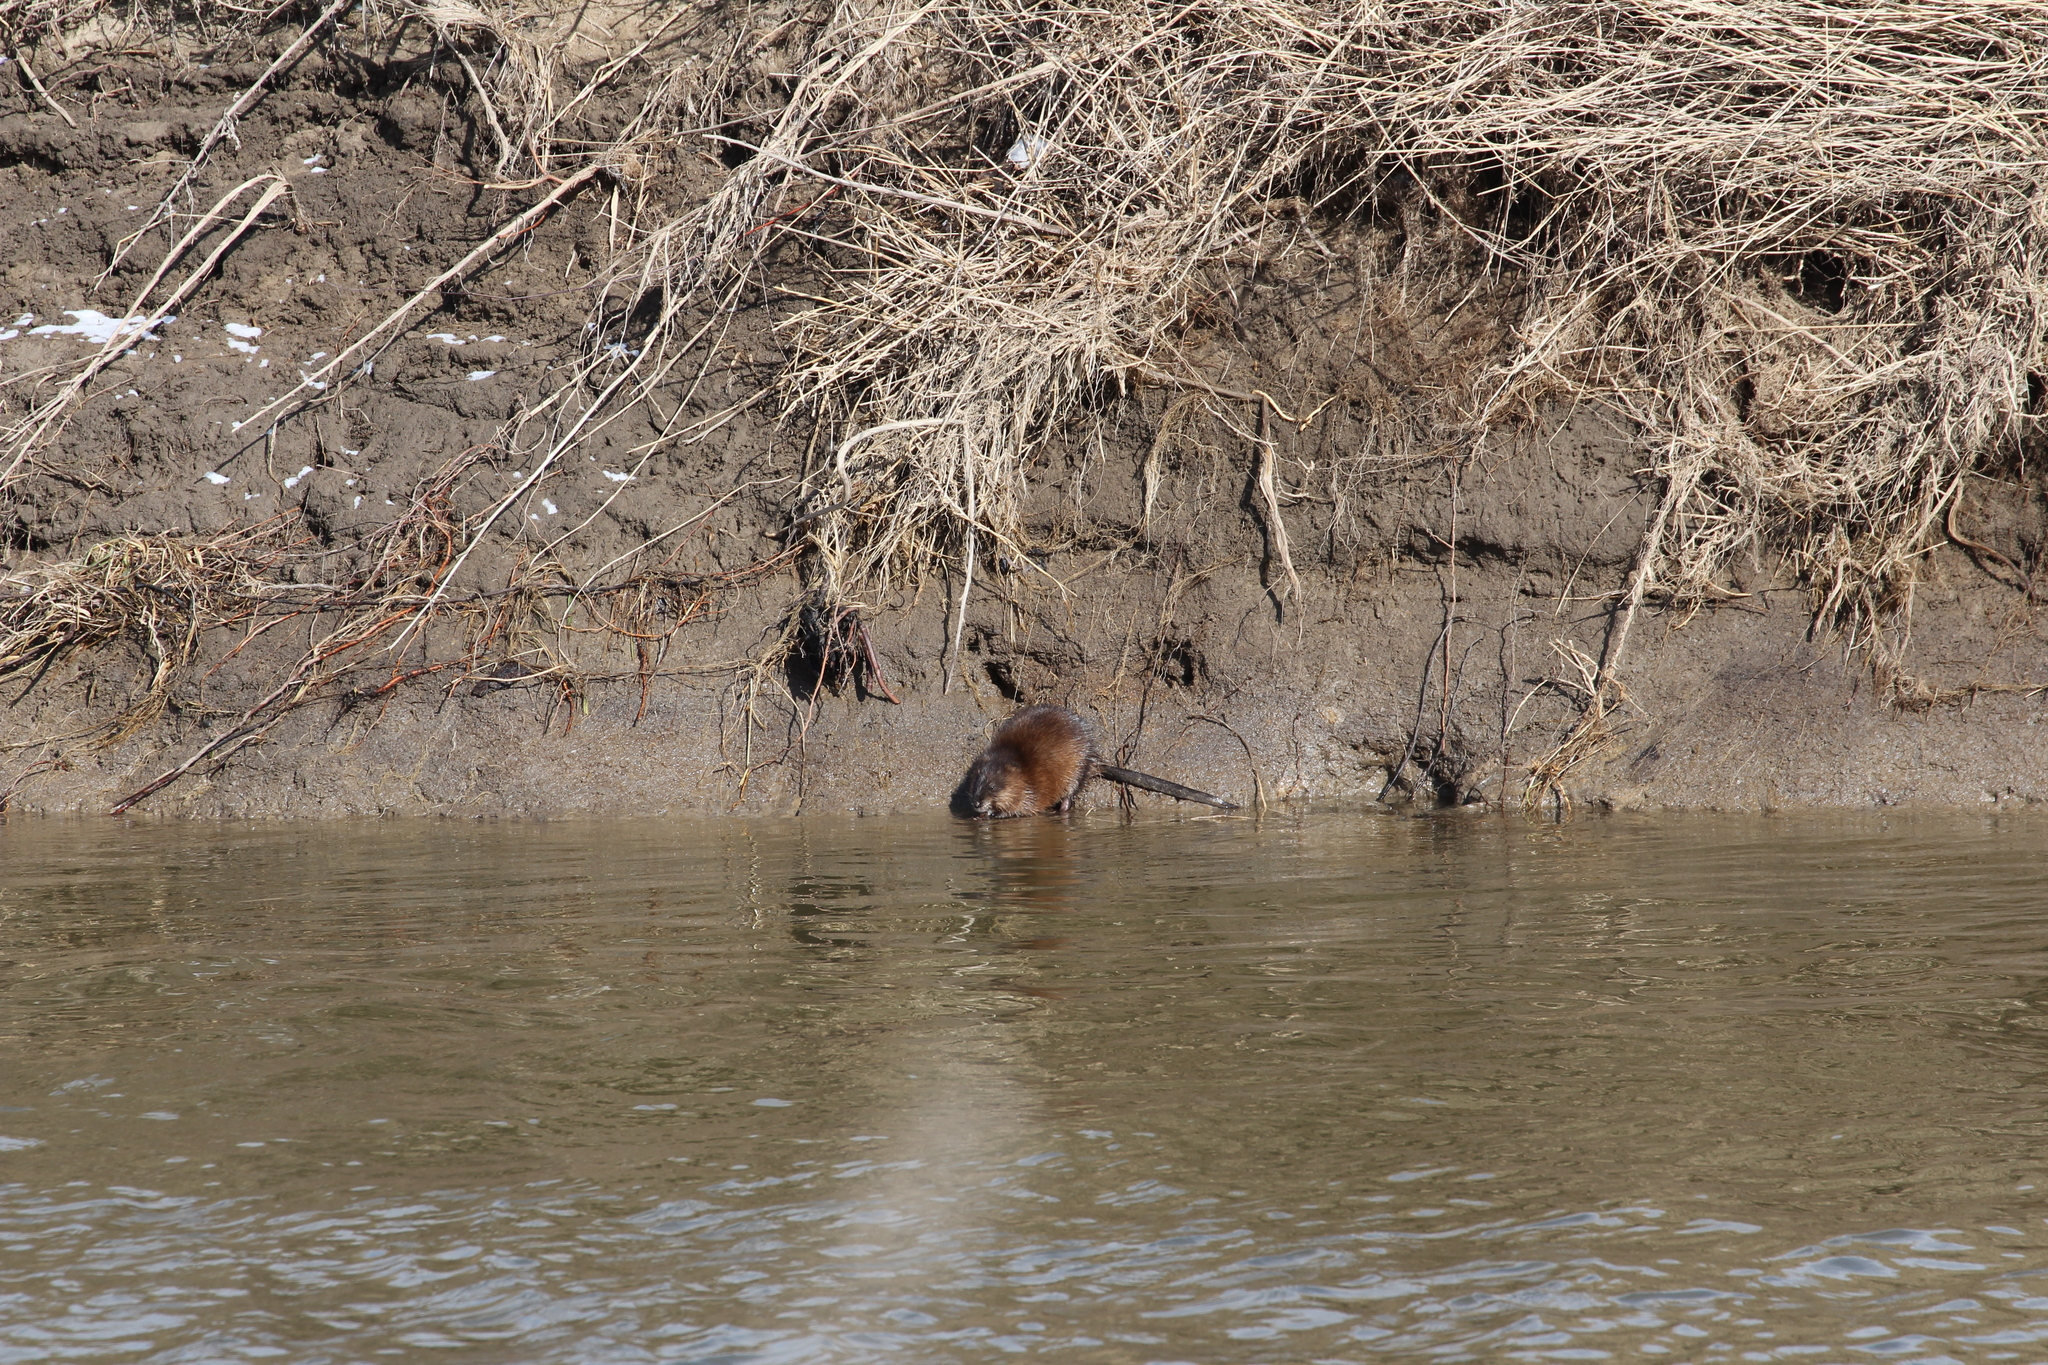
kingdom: Animalia
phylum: Chordata
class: Mammalia
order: Rodentia
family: Cricetidae
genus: Ondatra
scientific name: Ondatra zibethicus
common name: Muskrat
